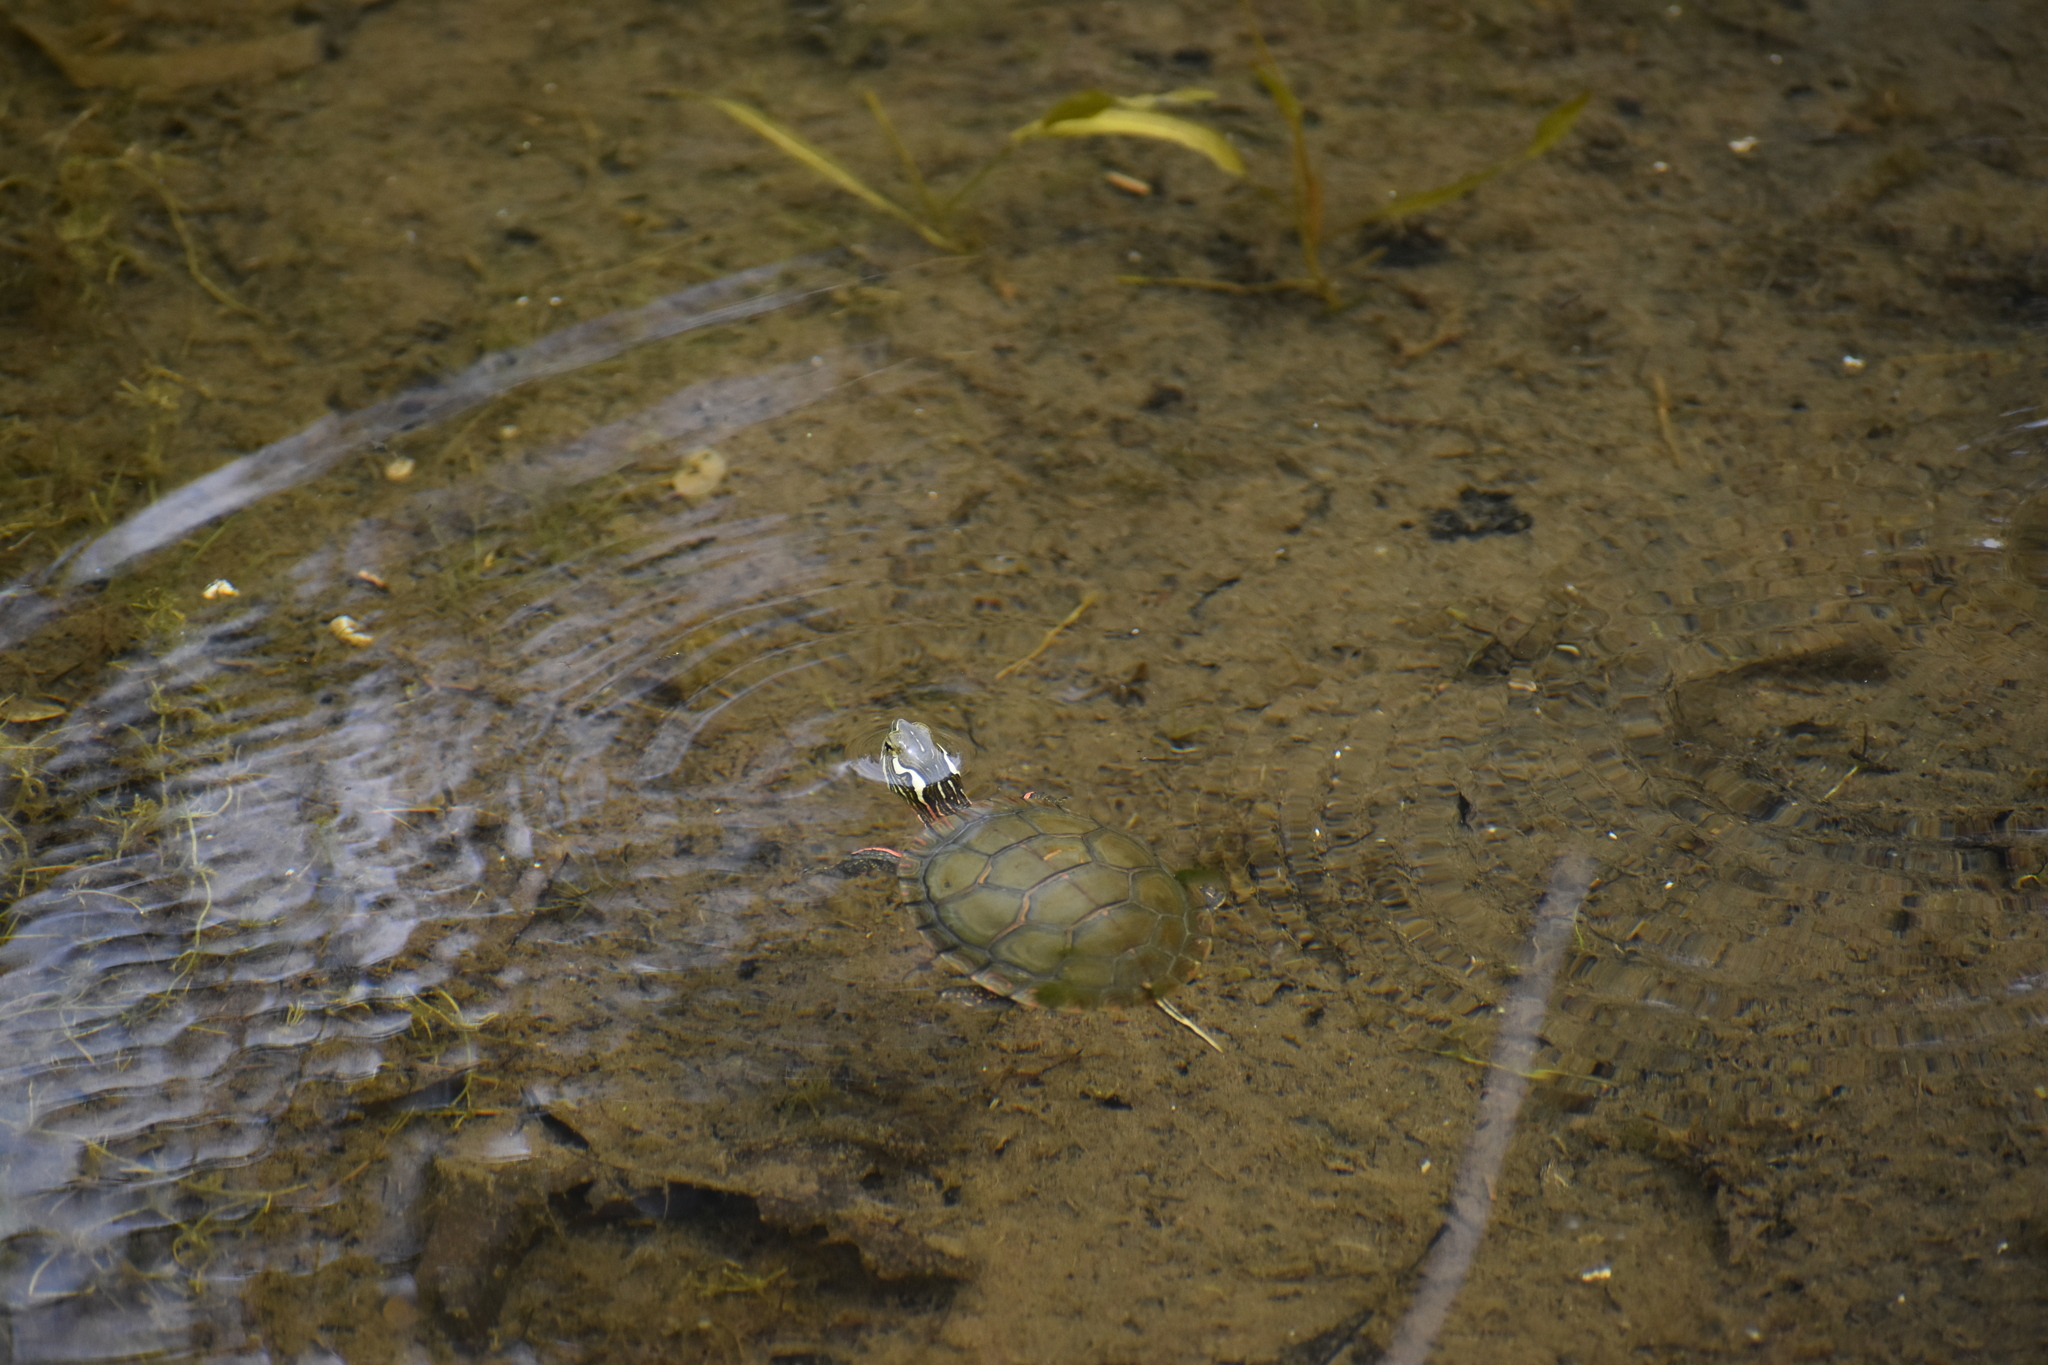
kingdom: Animalia
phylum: Chordata
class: Testudines
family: Emydidae
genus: Chrysemys
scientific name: Chrysemys picta
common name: Painted turtle
